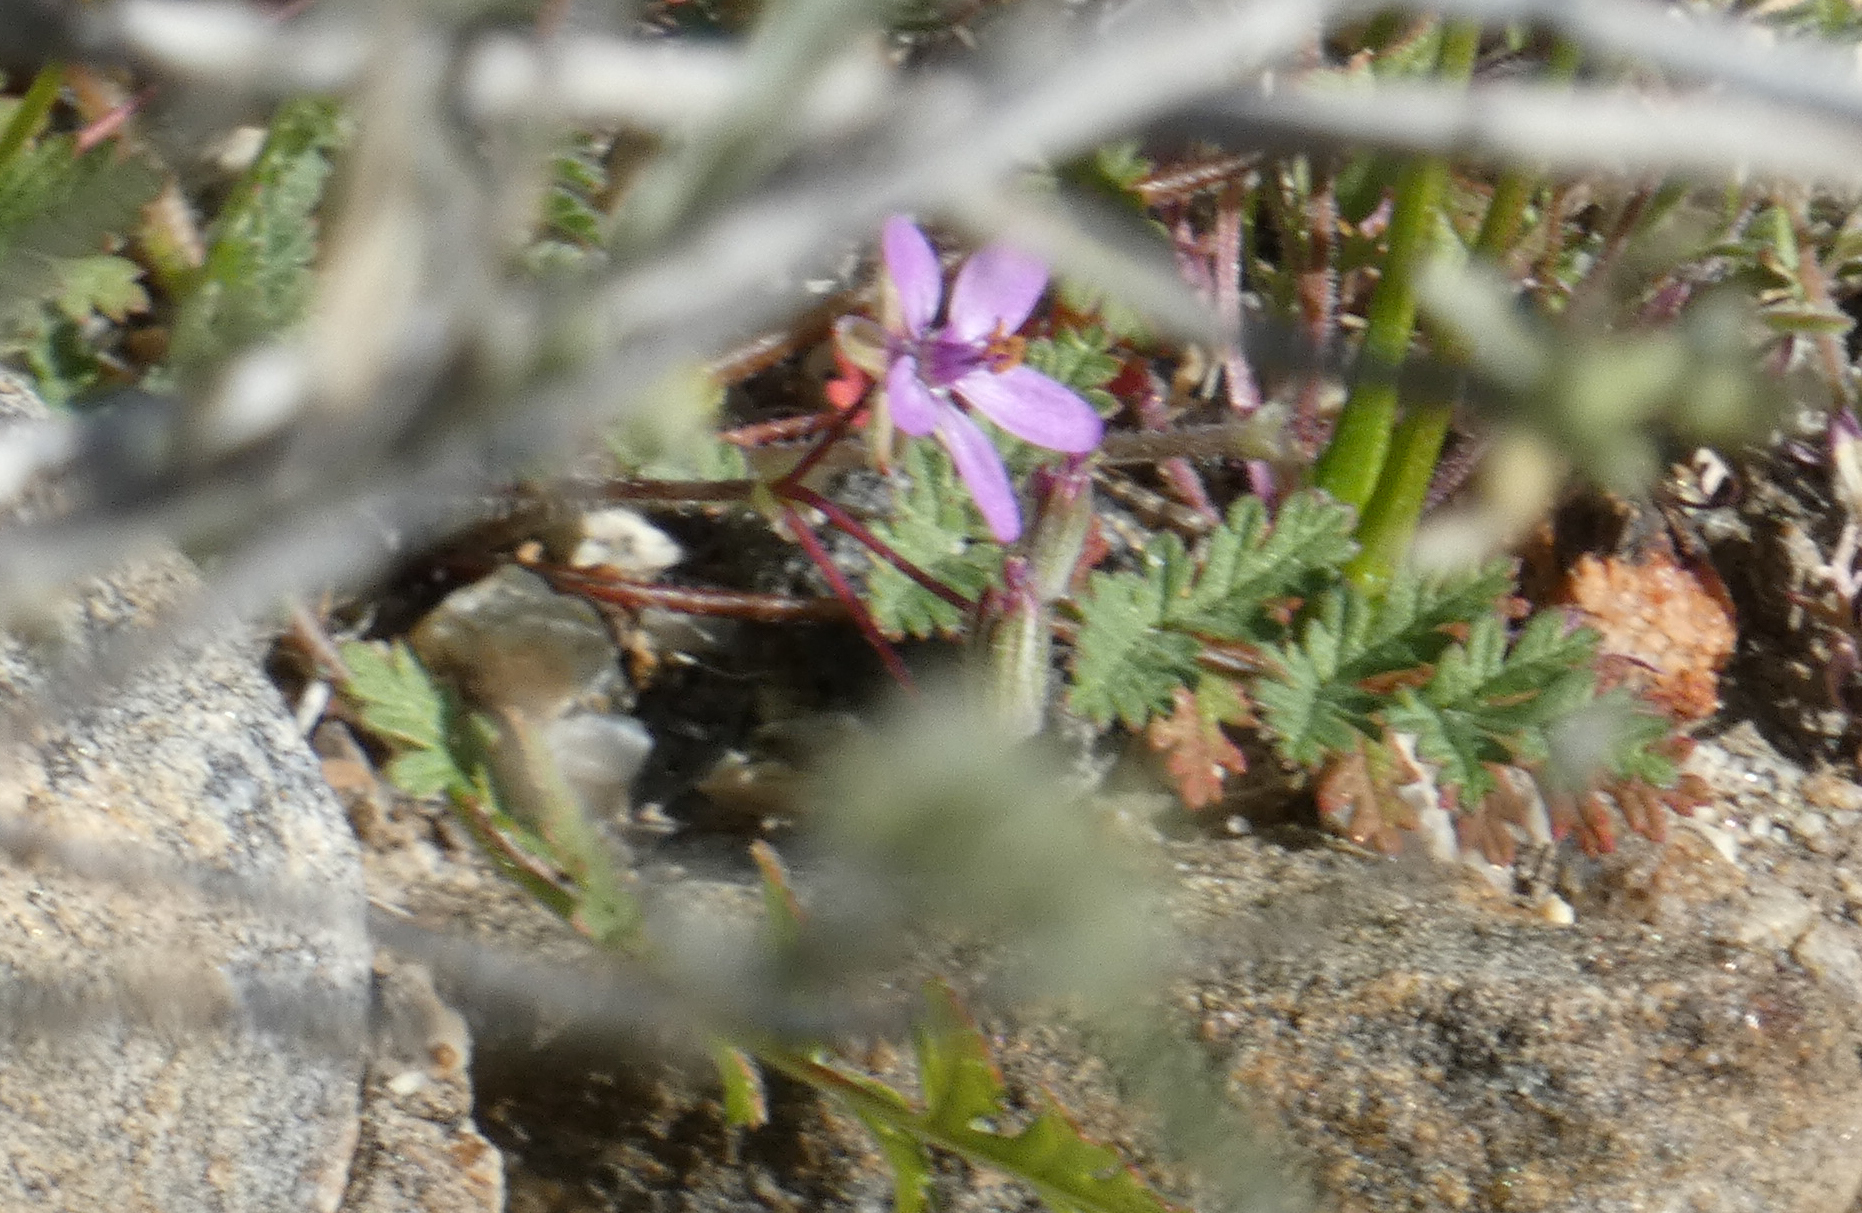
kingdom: Plantae
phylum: Tracheophyta
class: Magnoliopsida
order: Geraniales
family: Geraniaceae
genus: Erodium
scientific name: Erodium cicutarium
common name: Common stork's-bill
